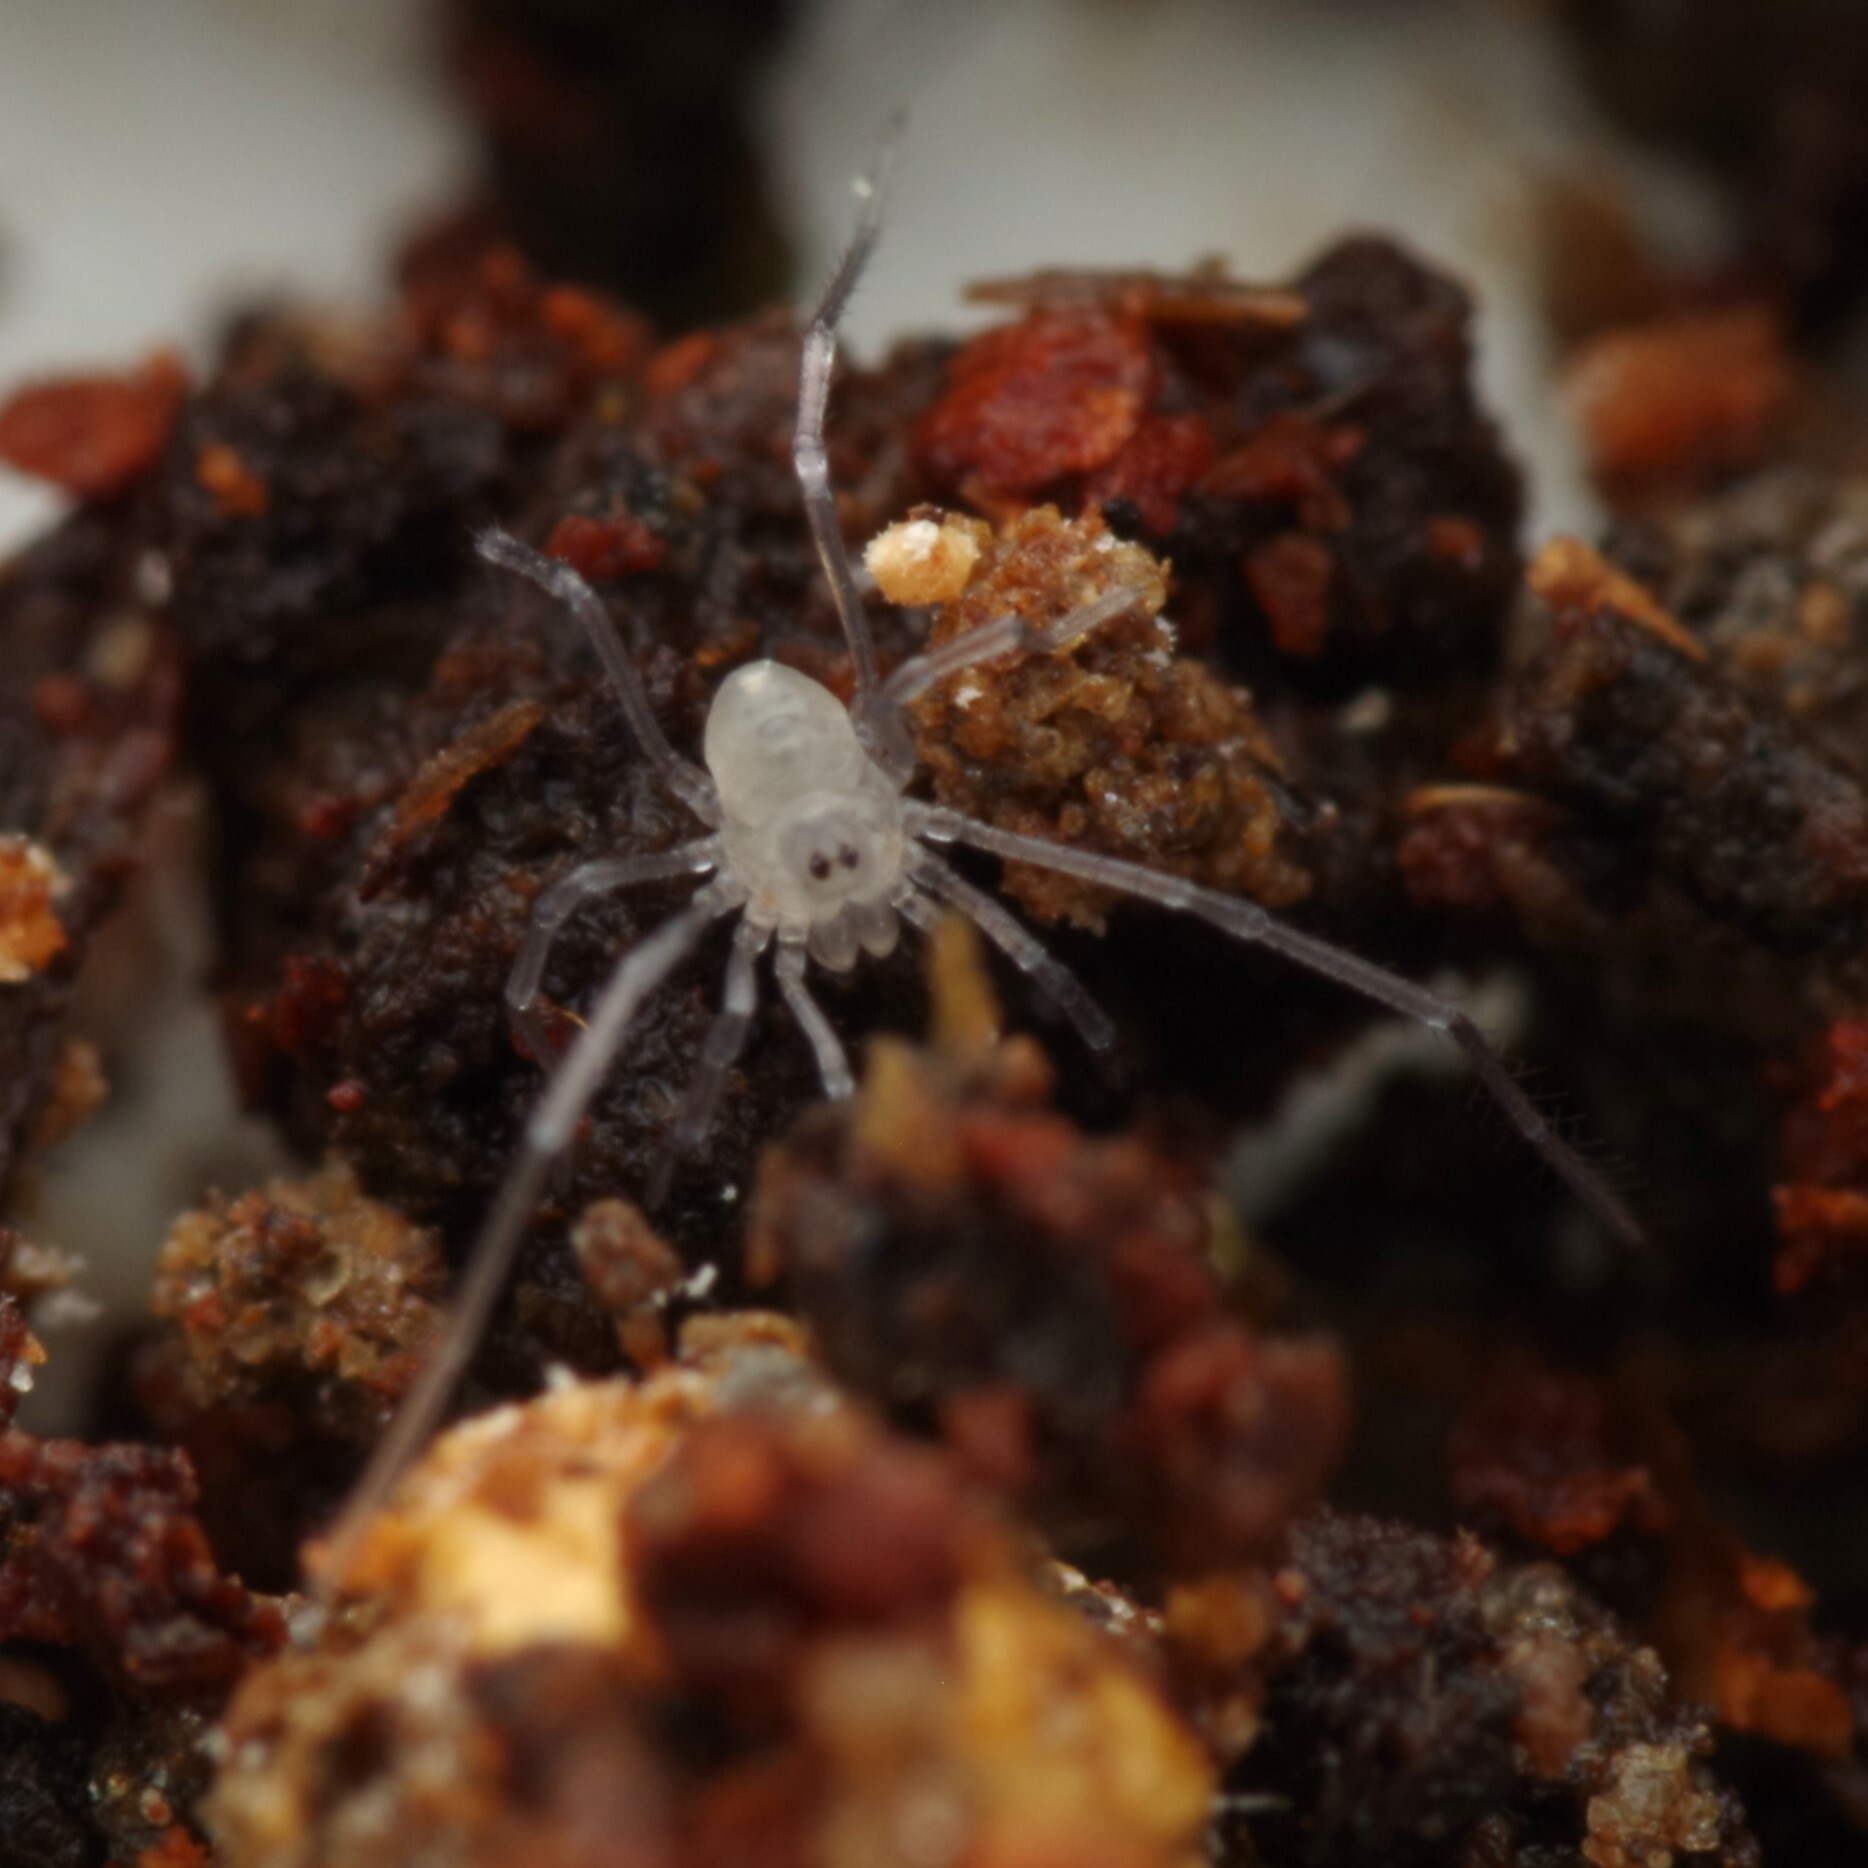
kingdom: Animalia
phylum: Arthropoda
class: Arachnida
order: Opiliones
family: Nemastomatidae
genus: Mitostoma
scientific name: Mitostoma chrysomelas
